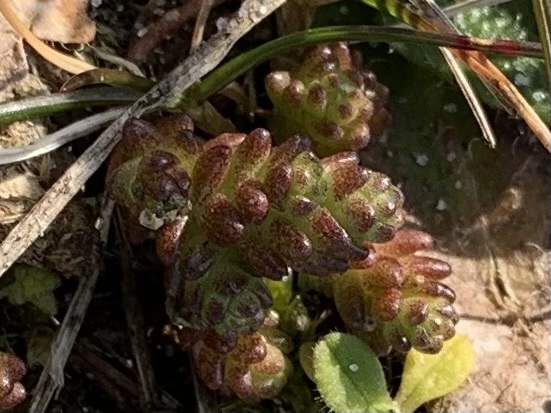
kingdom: Plantae
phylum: Tracheophyta
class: Magnoliopsida
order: Saxifragales
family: Crassulaceae
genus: Sedum
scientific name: Sedum acre
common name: Biting stonecrop
